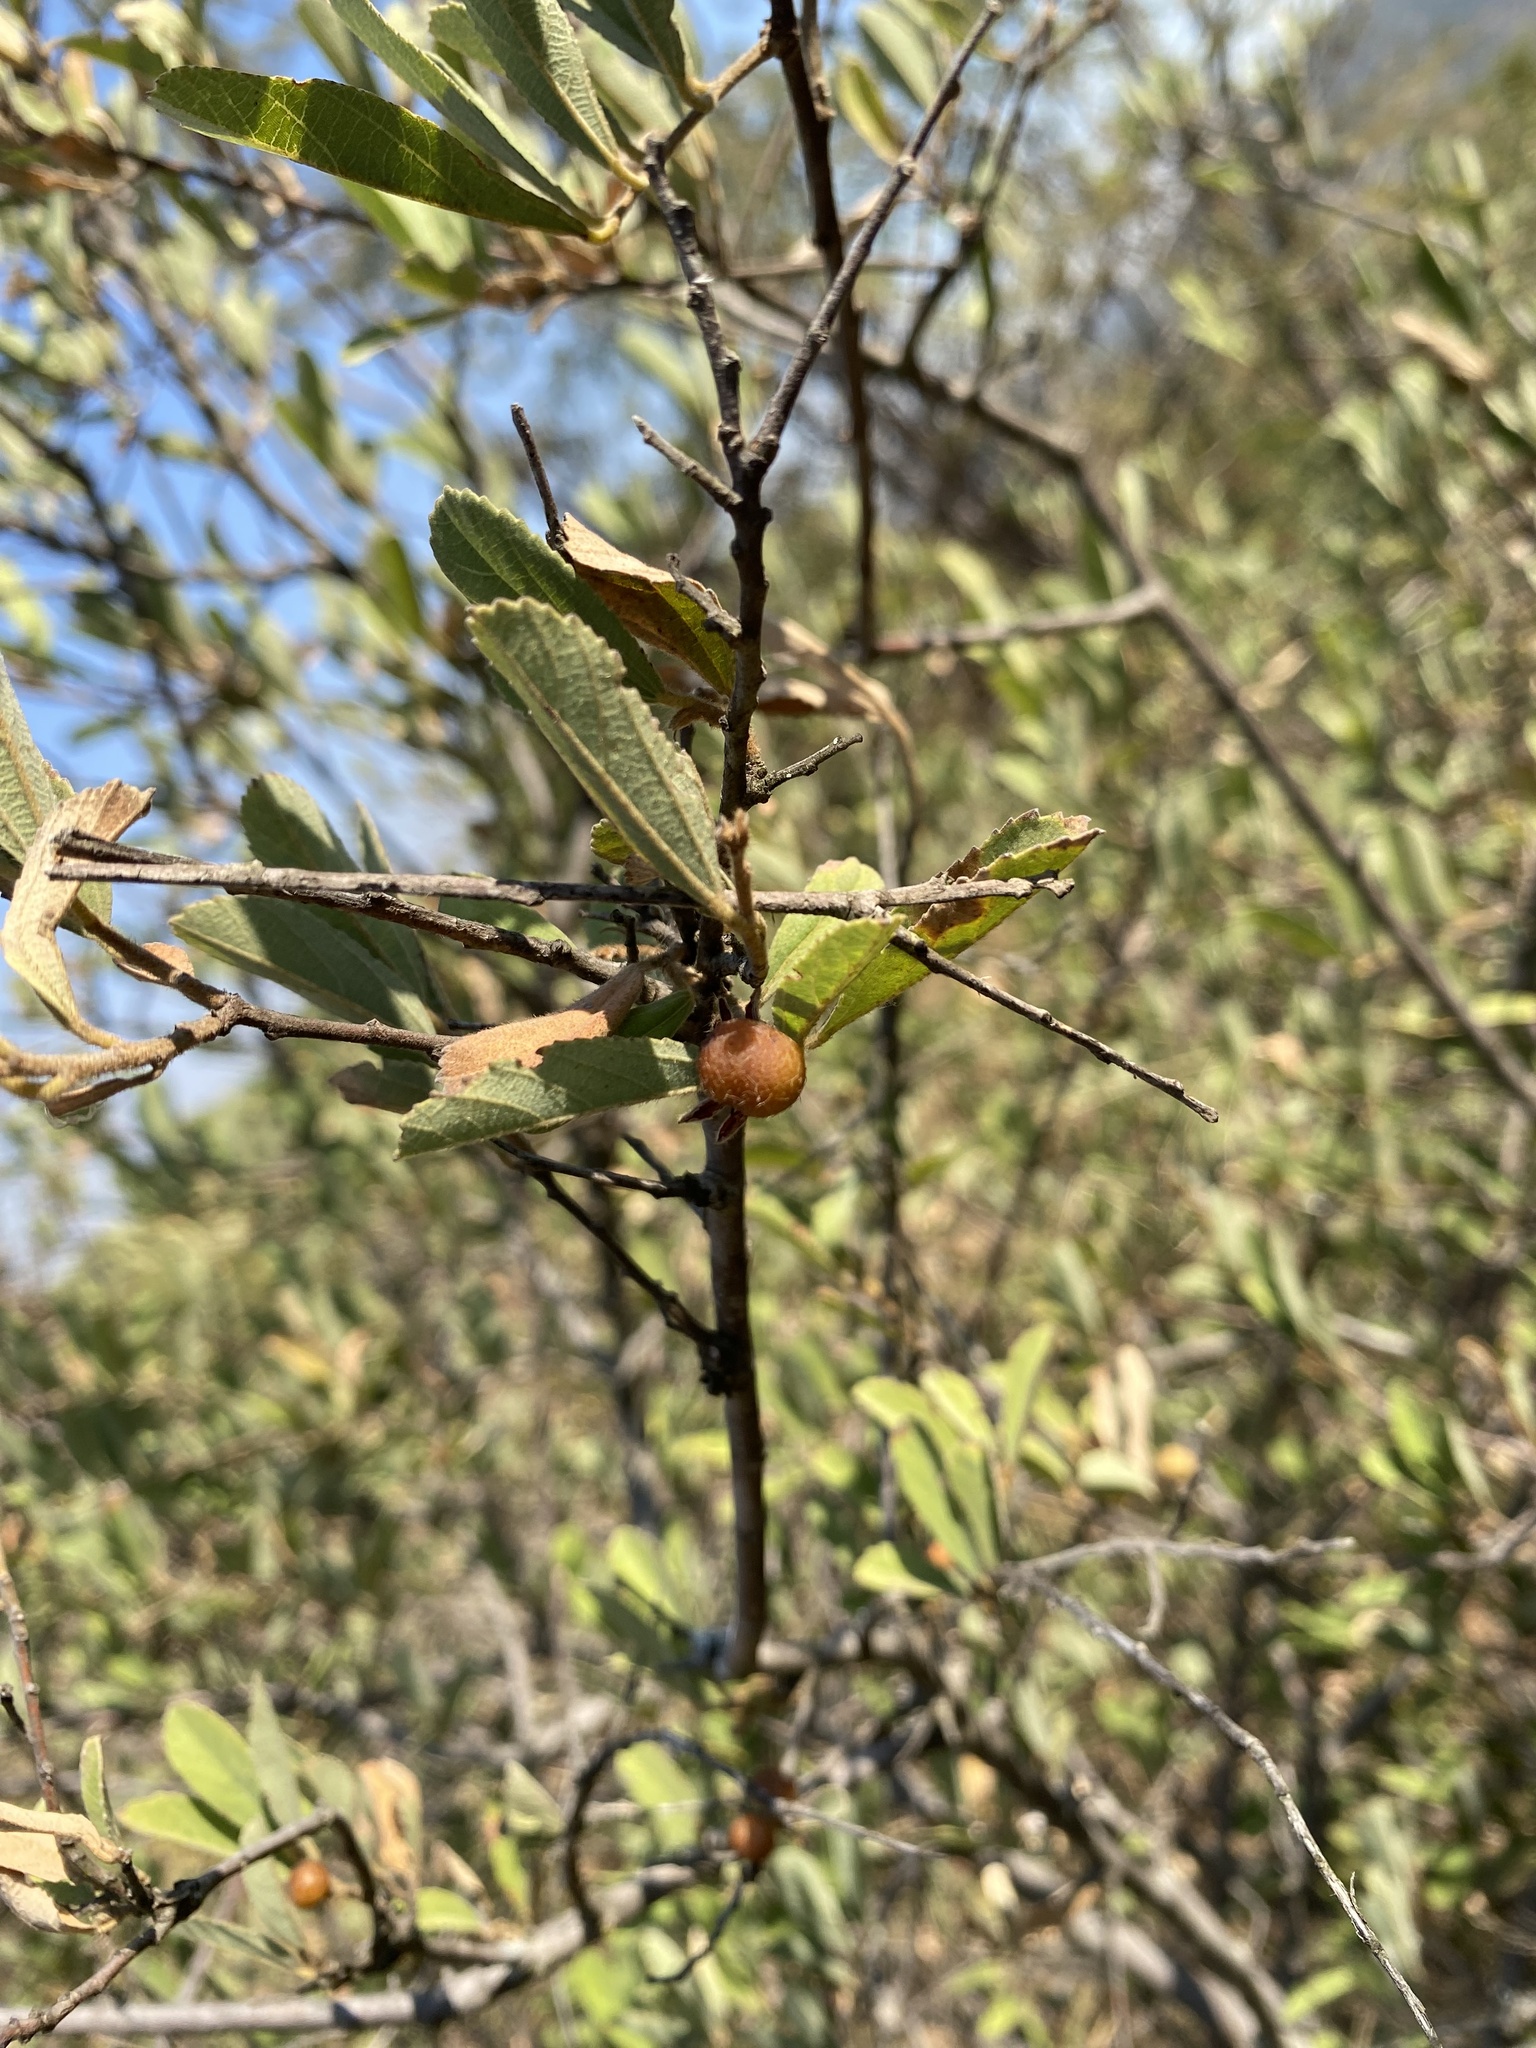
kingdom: Plantae
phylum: Tracheophyta
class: Magnoliopsida
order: Malvales
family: Malvaceae
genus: Grewia
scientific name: Grewia flava
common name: Brandy bush
